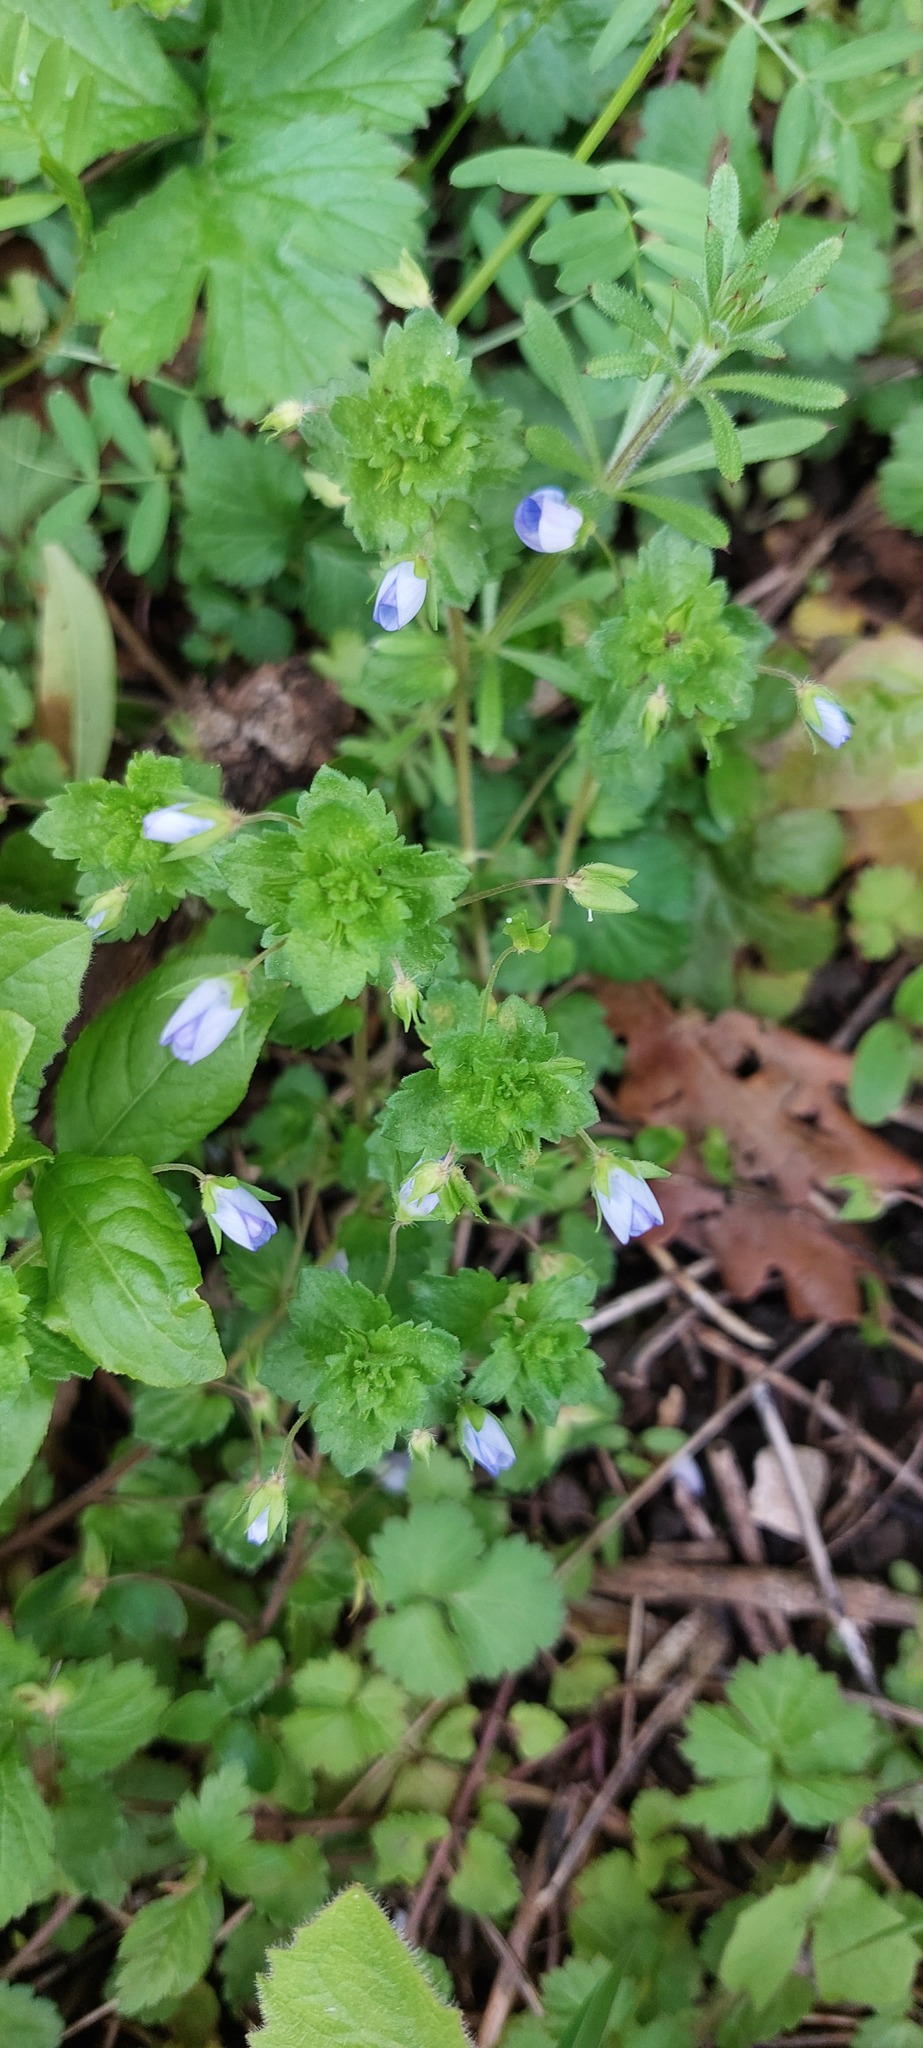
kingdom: Plantae
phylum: Tracheophyta
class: Magnoliopsida
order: Lamiales
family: Plantaginaceae
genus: Veronica
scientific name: Veronica persica
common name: Common field-speedwell
